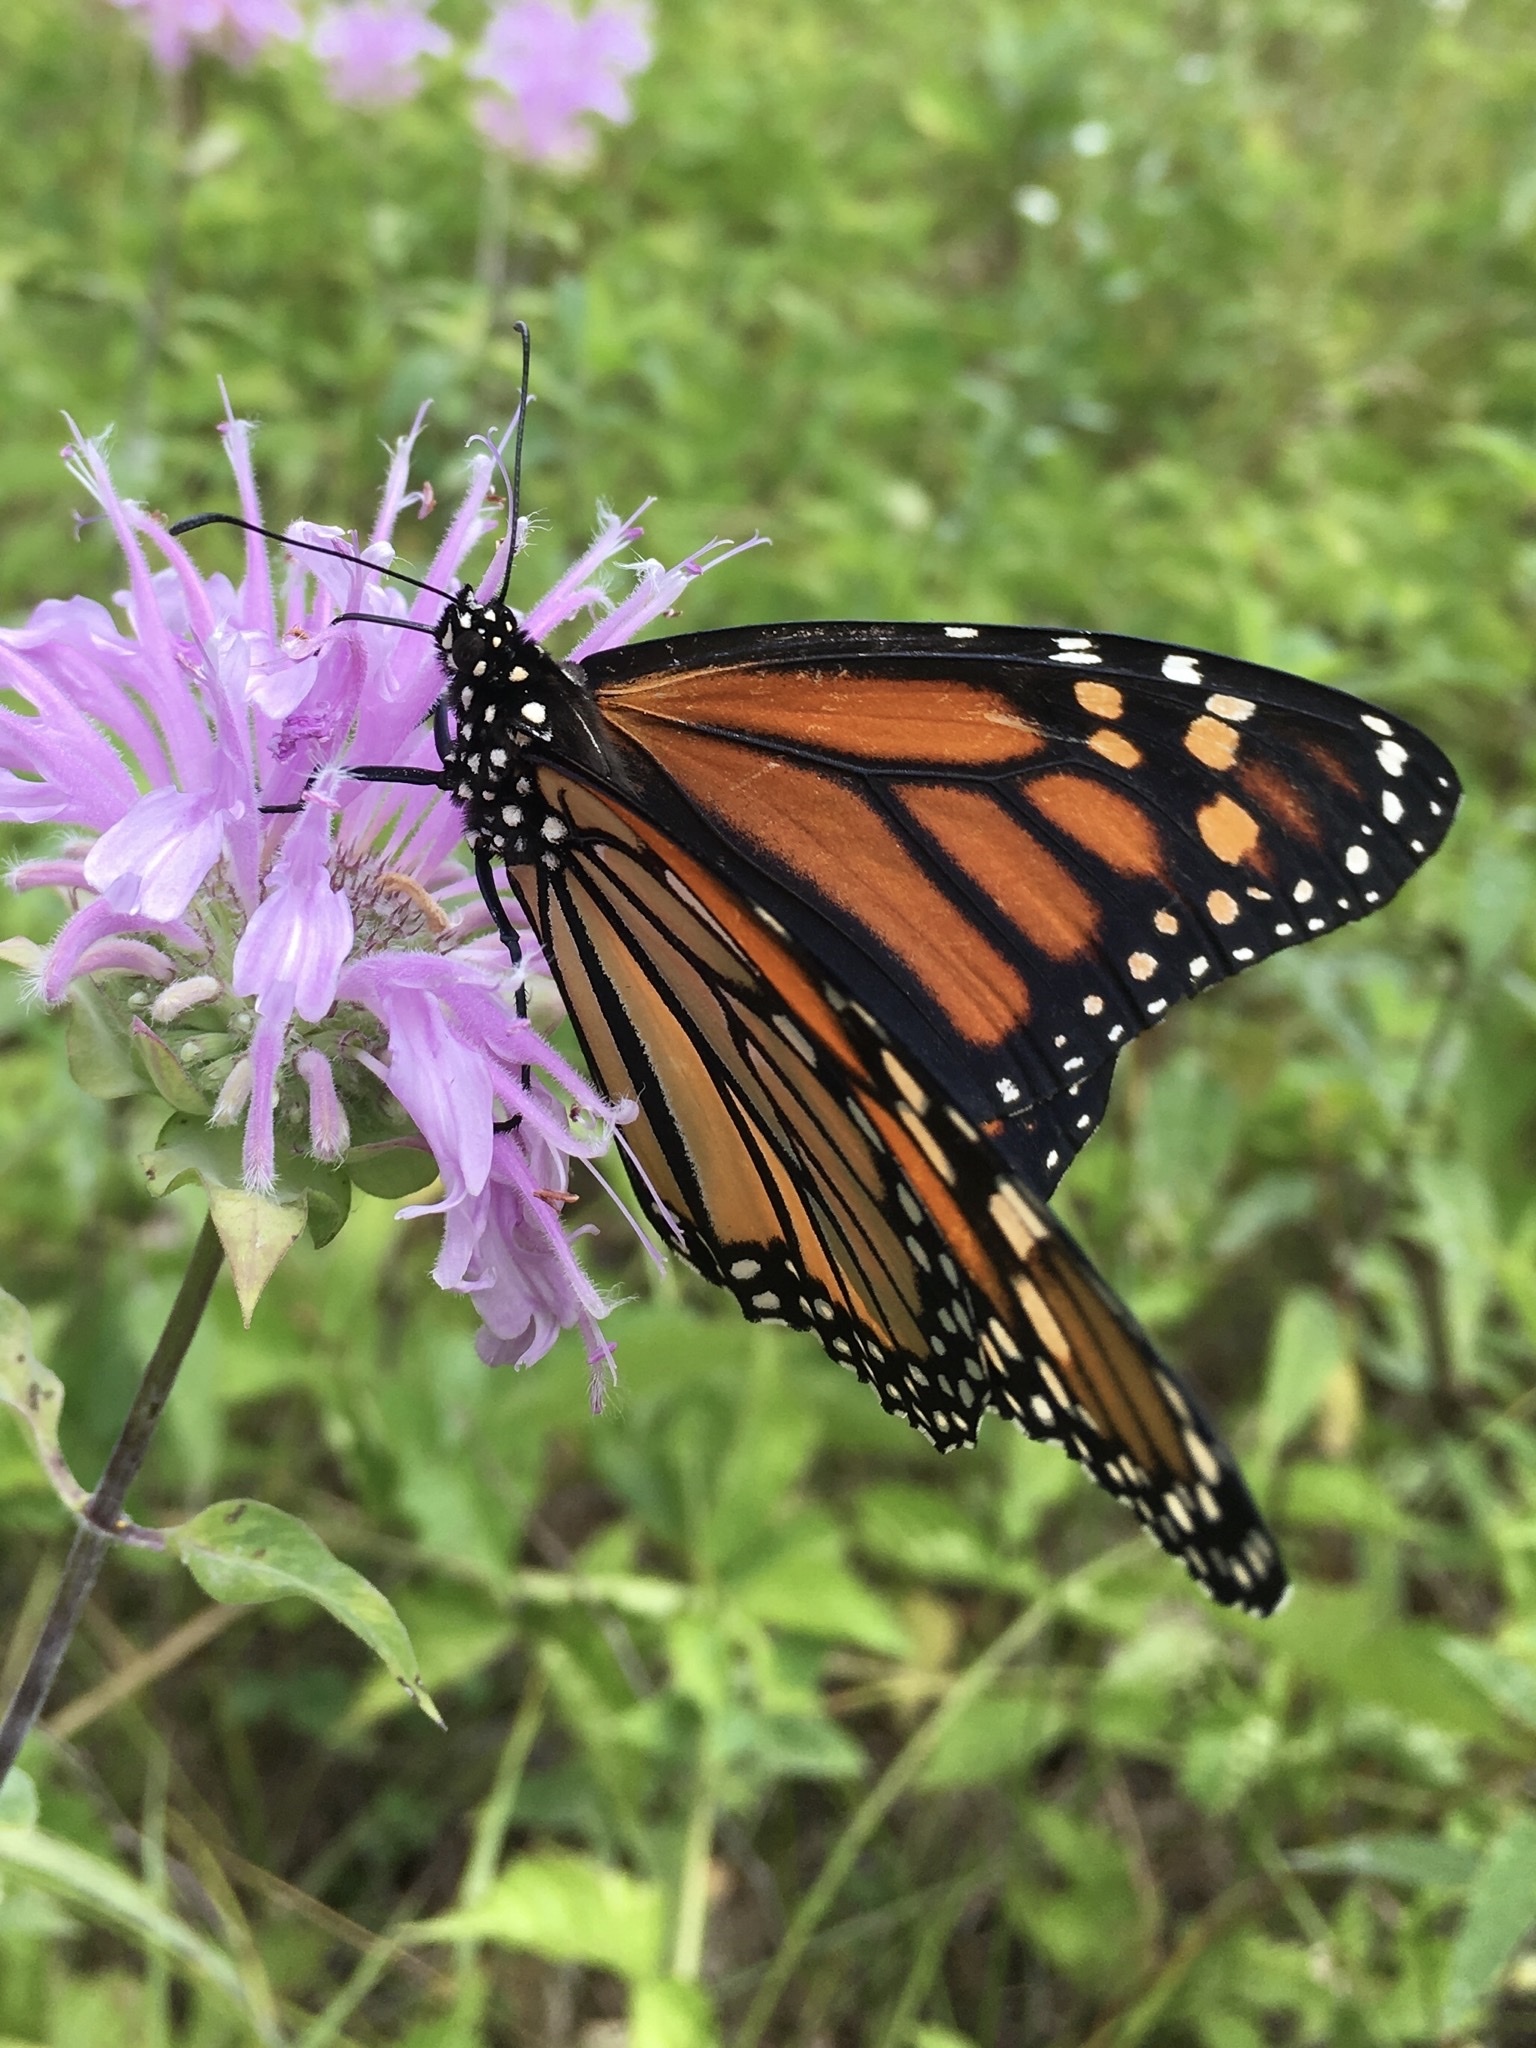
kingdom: Animalia
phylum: Arthropoda
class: Insecta
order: Lepidoptera
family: Nymphalidae
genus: Danaus
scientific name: Danaus plexippus
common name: Monarch
